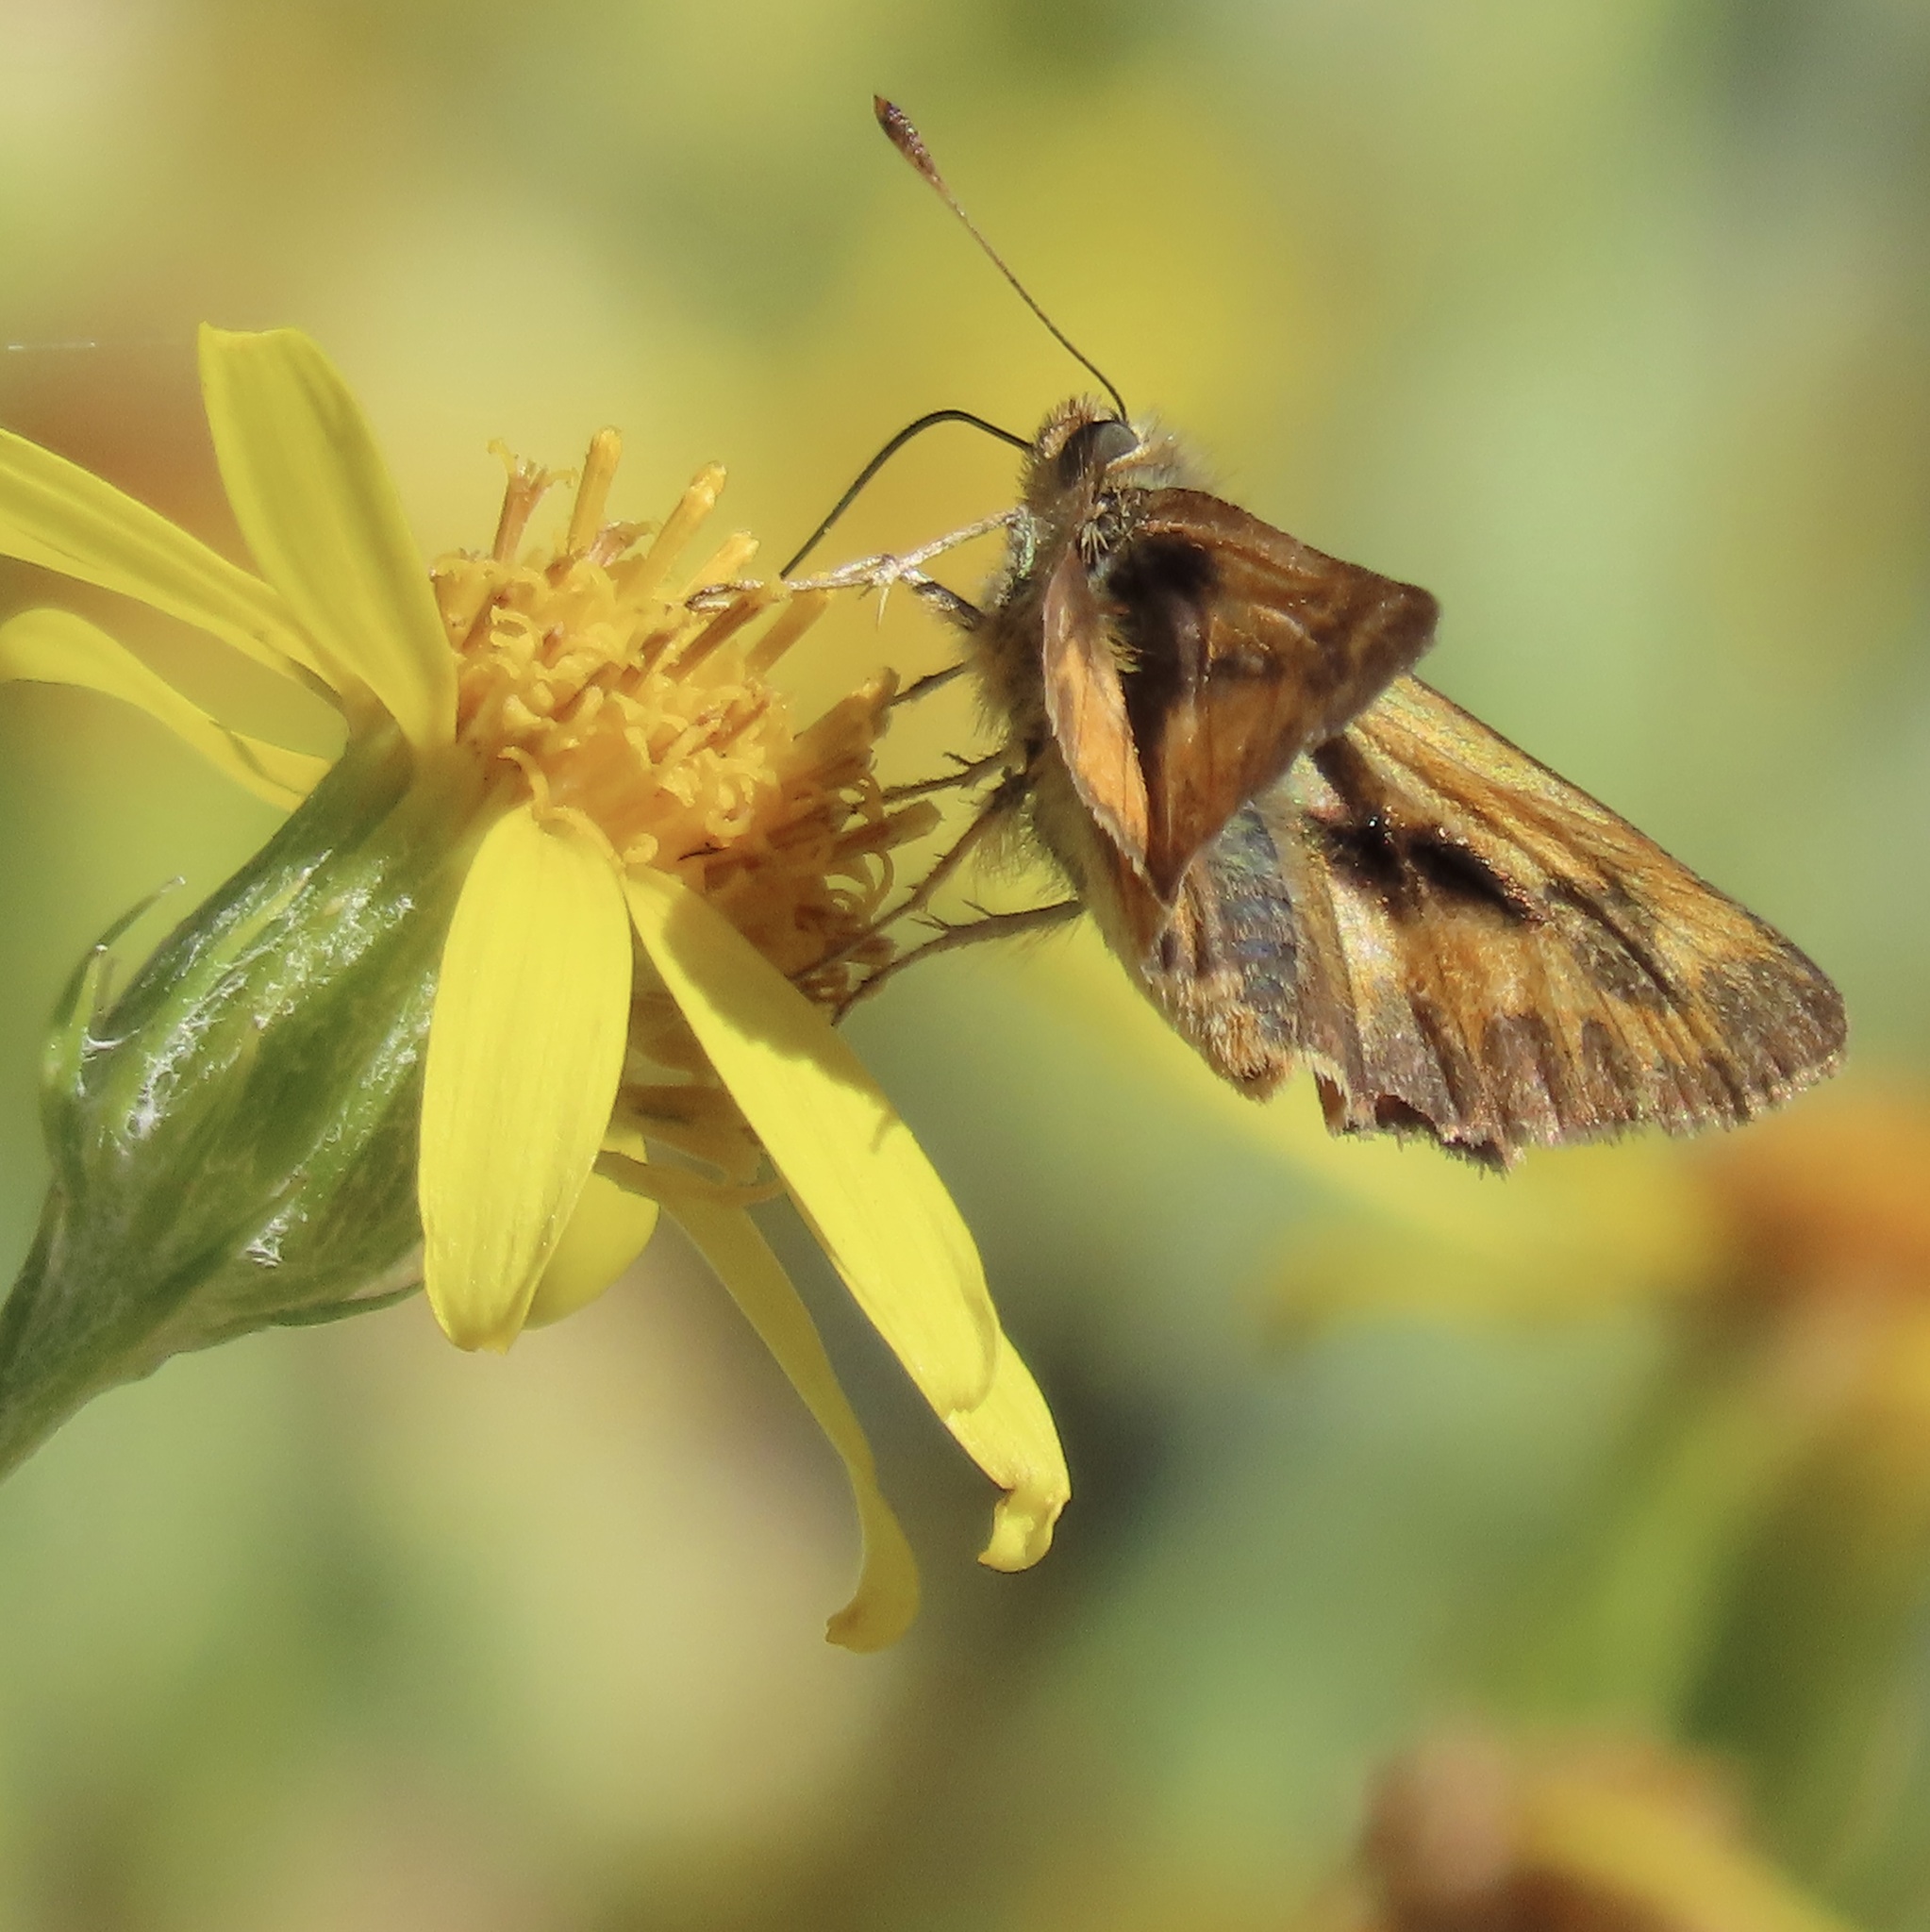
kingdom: Animalia
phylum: Arthropoda
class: Insecta
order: Lepidoptera
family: Hesperiidae
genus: Ochlodes
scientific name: Ochlodes sylvanoides
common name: Woodland skipper
